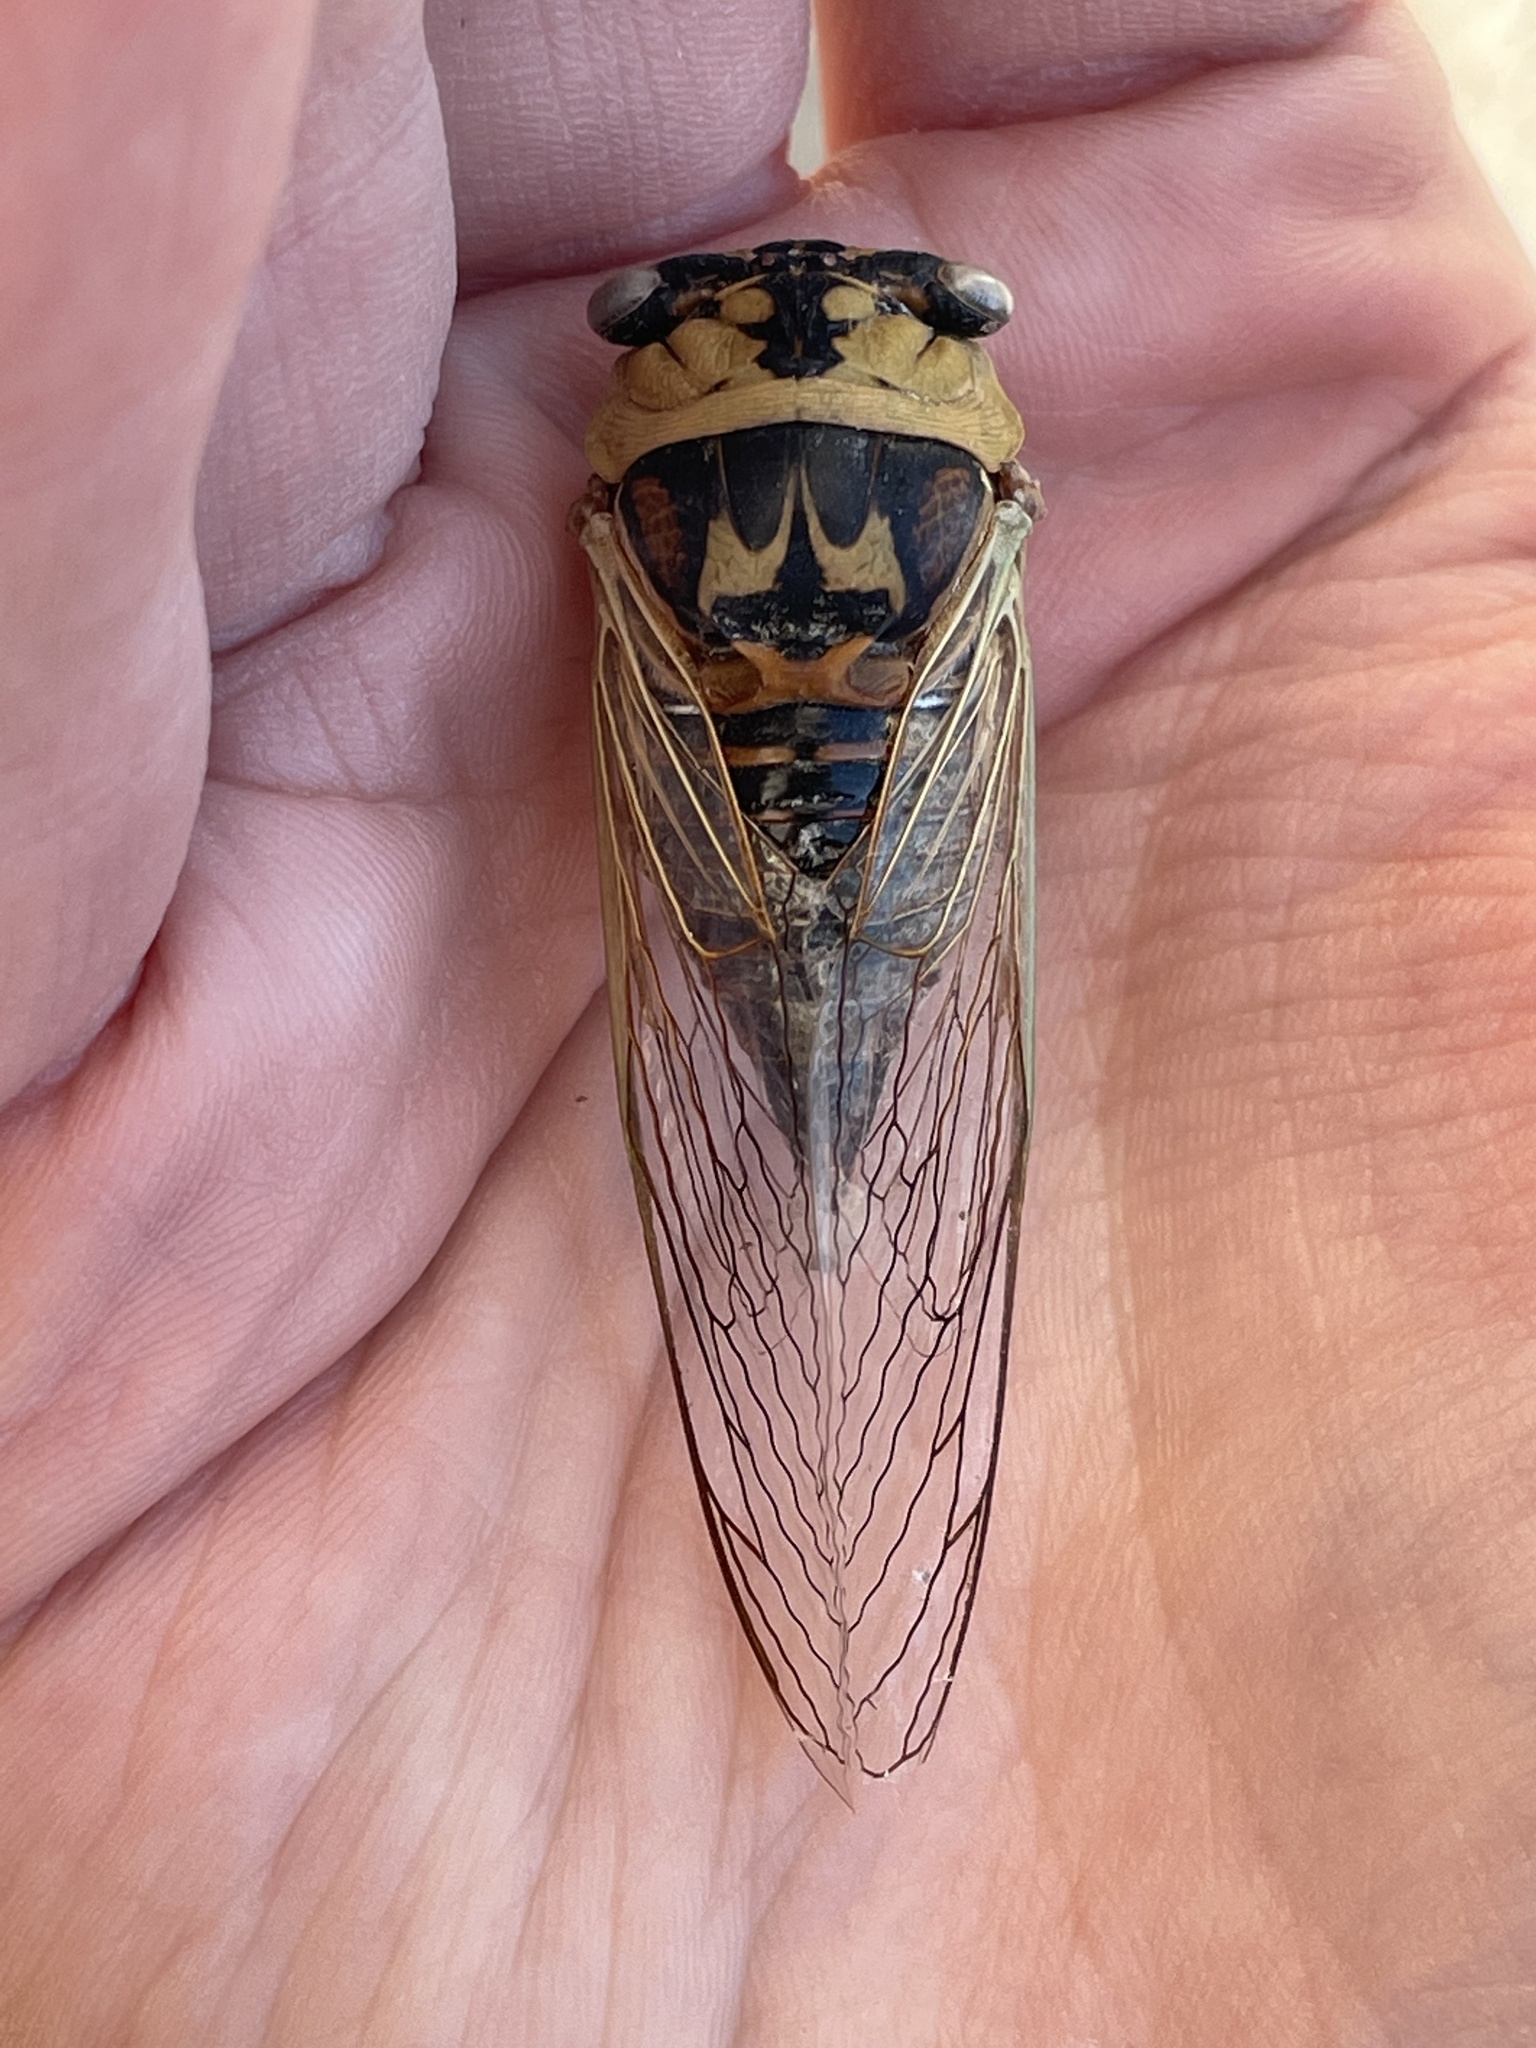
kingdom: Animalia
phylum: Arthropoda
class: Insecta
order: Hemiptera
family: Cicadidae
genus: Megatibicen
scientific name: Megatibicen pronotalis
